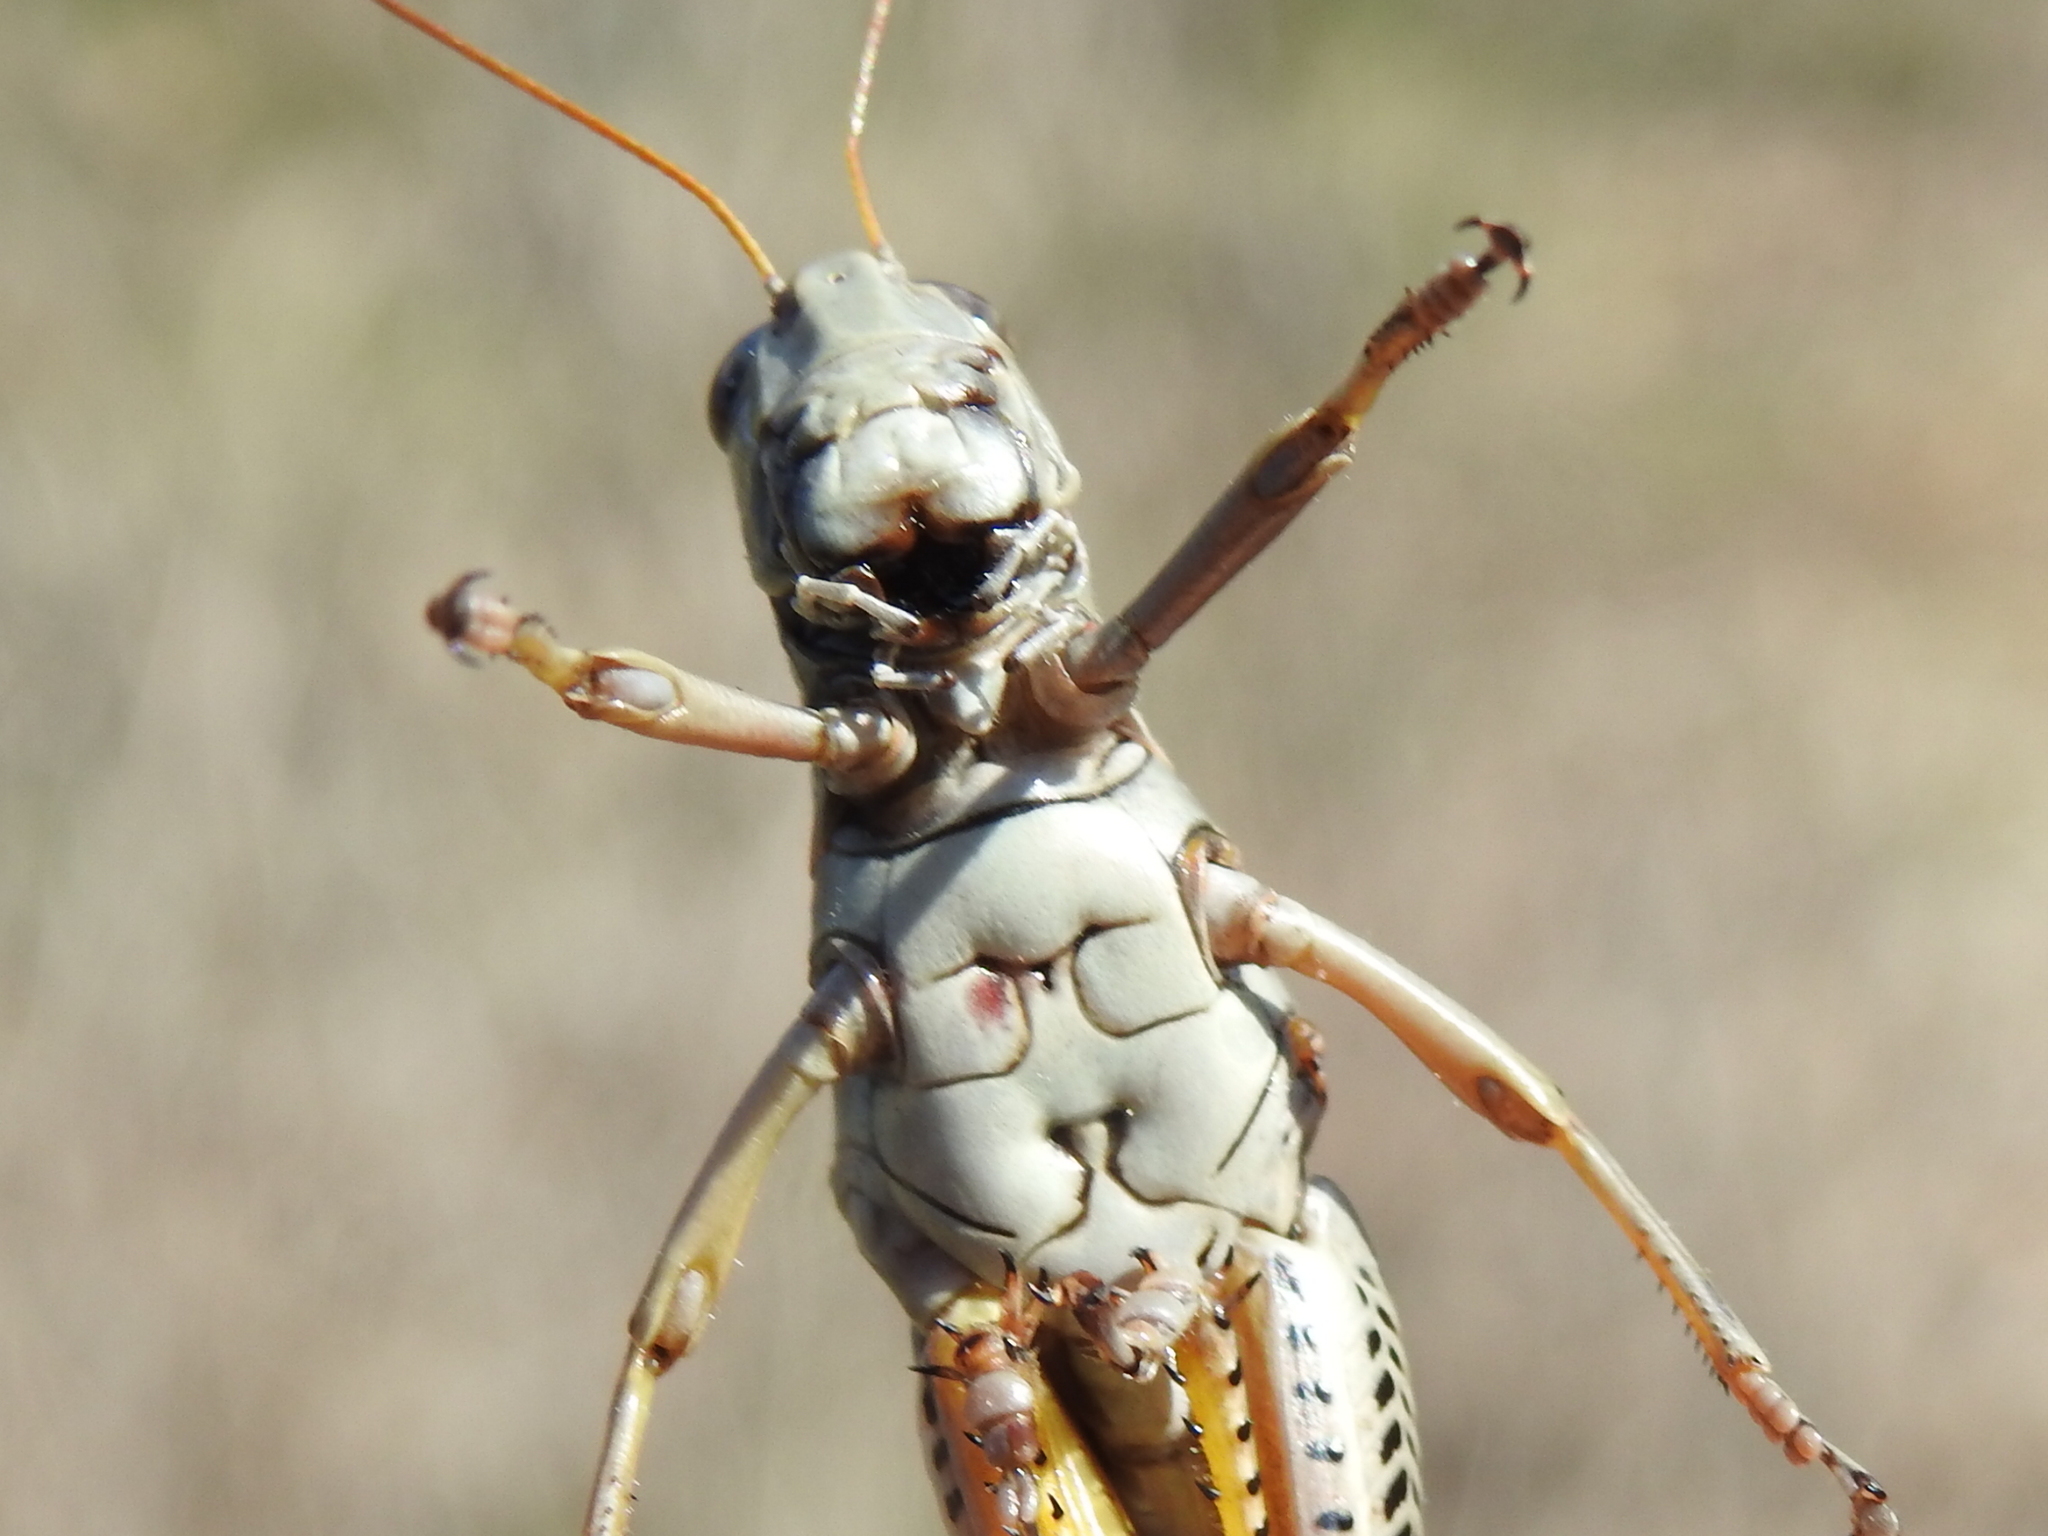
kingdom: Animalia
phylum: Arthropoda
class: Insecta
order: Orthoptera
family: Acrididae
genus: Melanoplus
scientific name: Melanoplus differentialis
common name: Differential grasshopper
